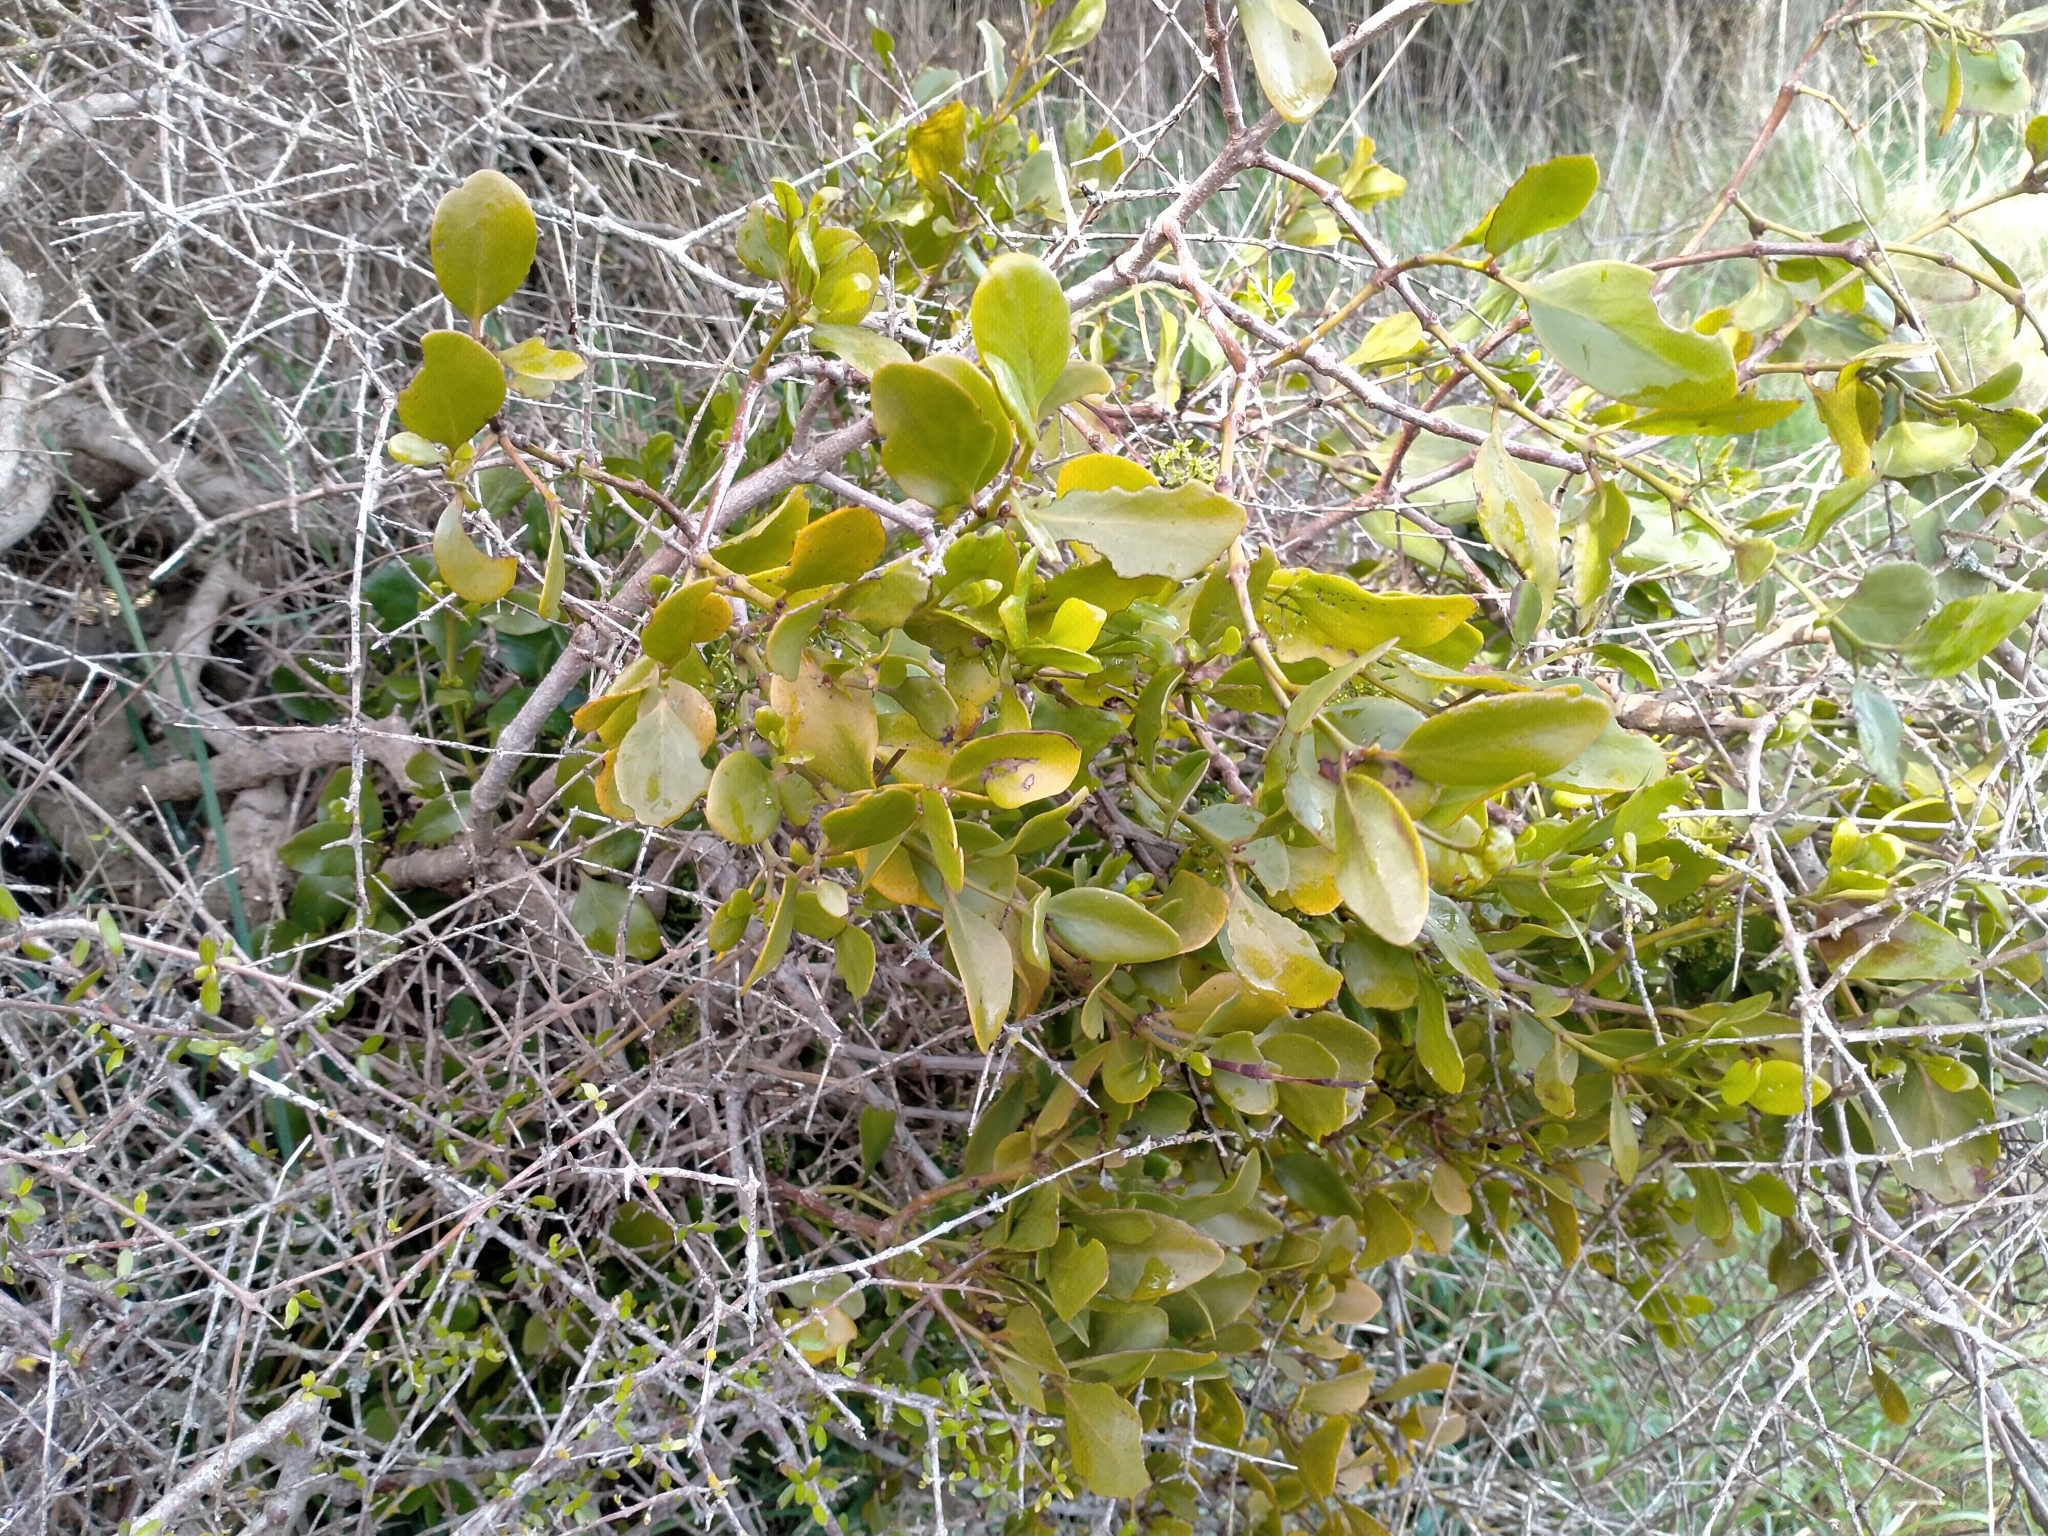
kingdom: Plantae
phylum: Tracheophyta
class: Magnoliopsida
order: Santalales
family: Loranthaceae
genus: Ileostylus
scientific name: Ileostylus micranthus
